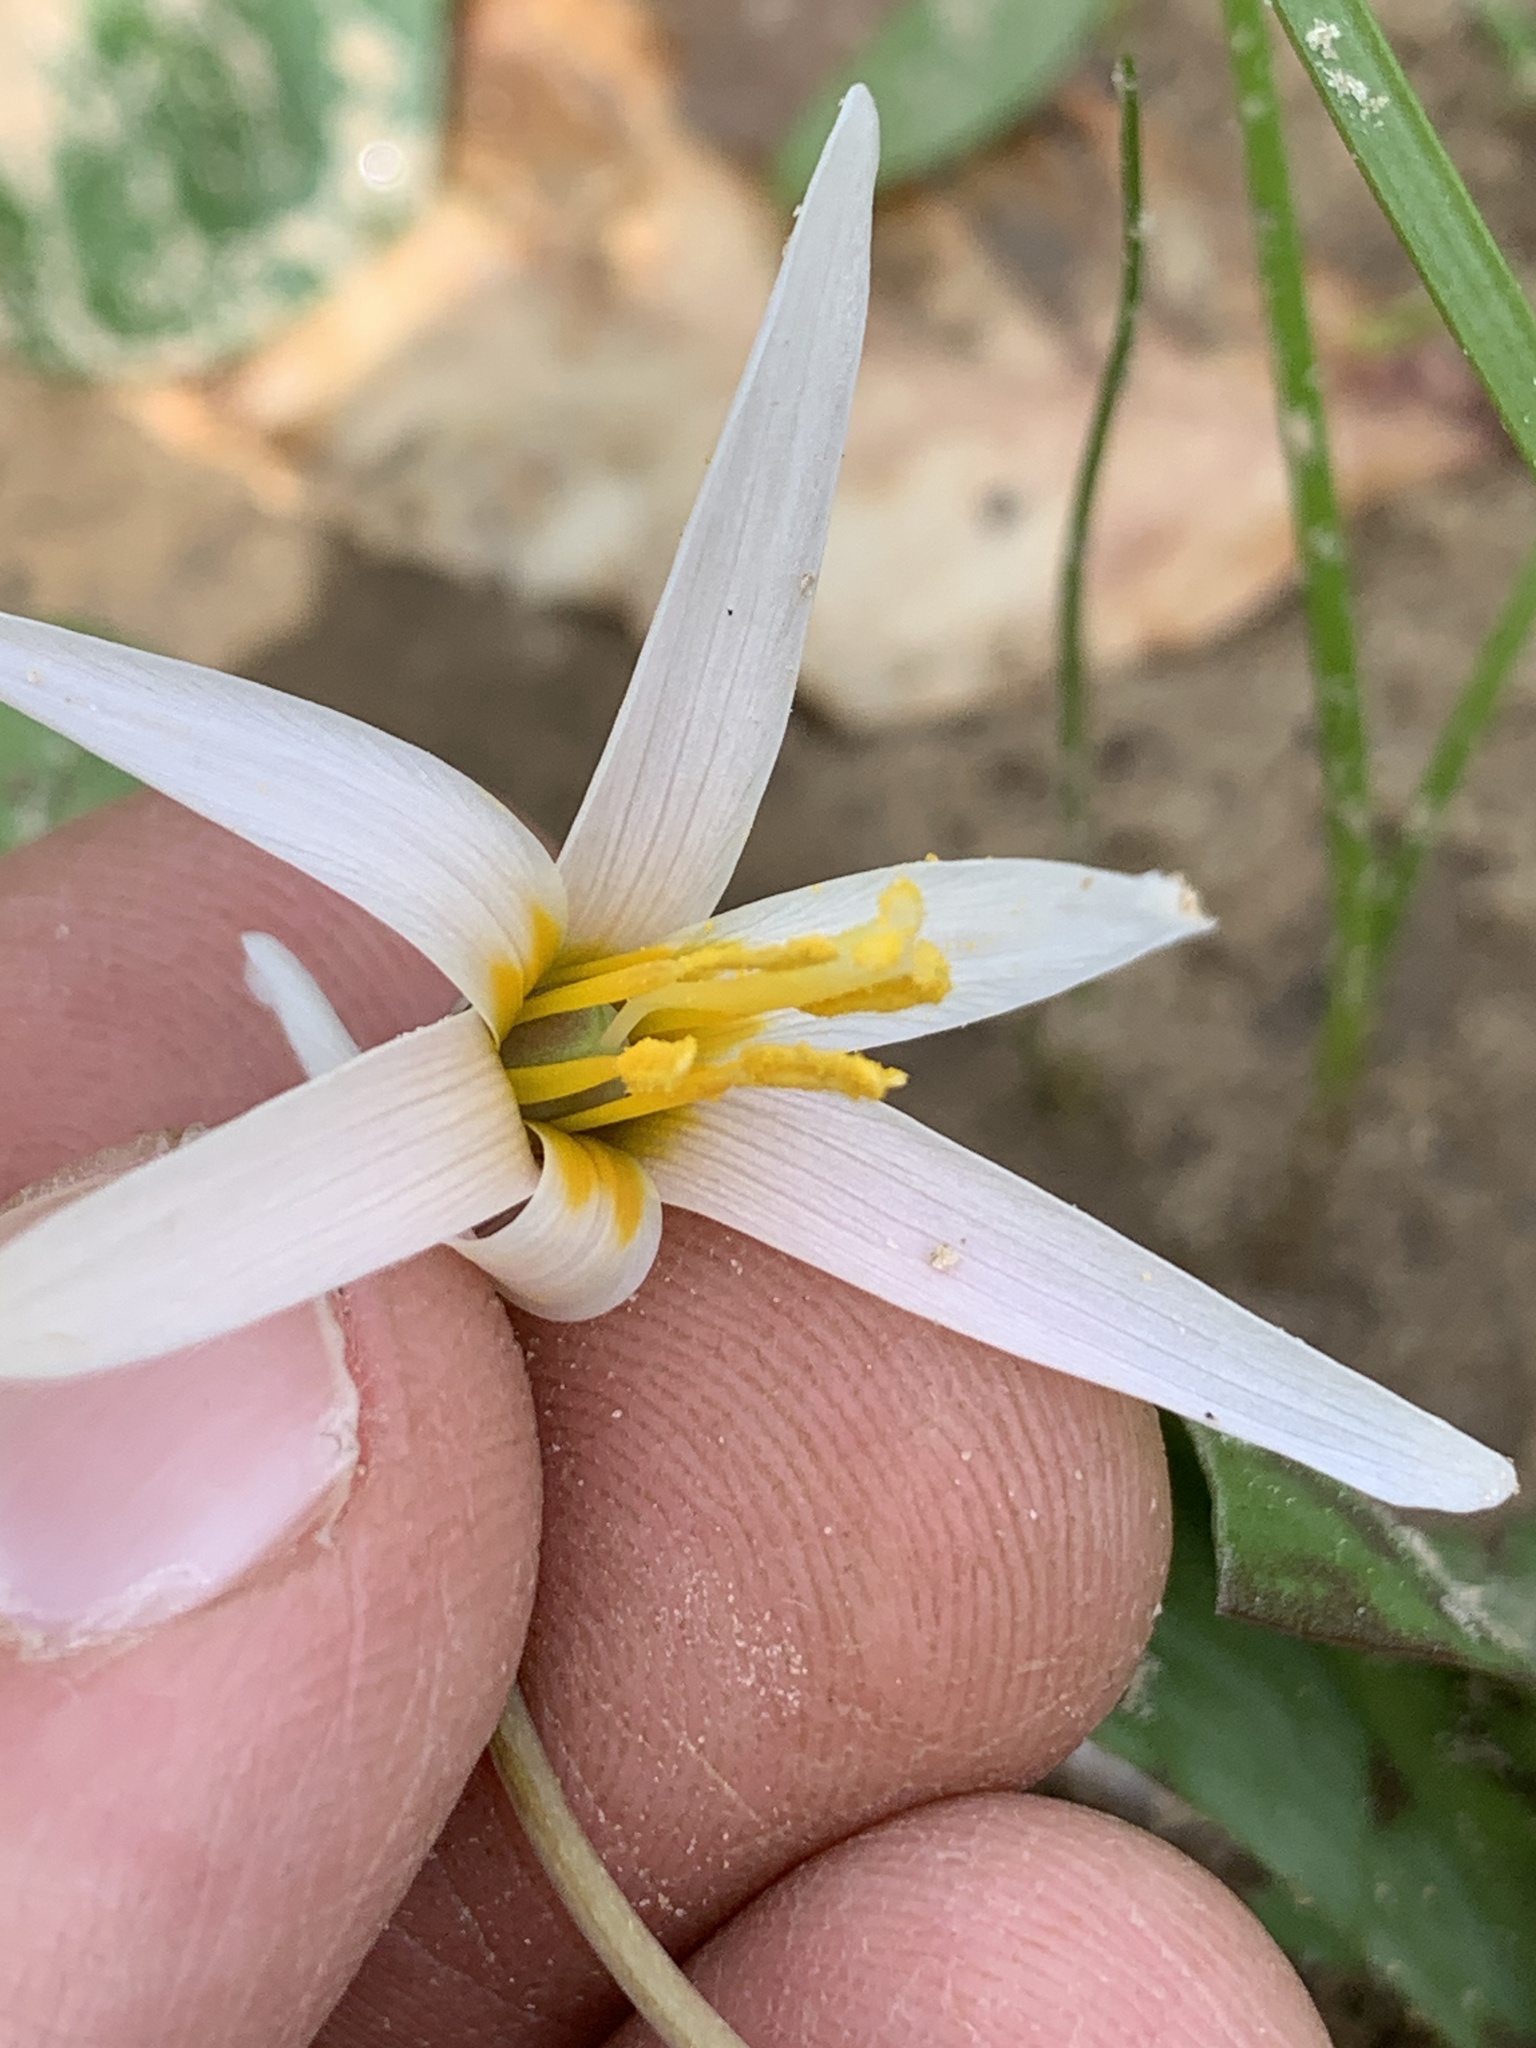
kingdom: Plantae
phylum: Tracheophyta
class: Liliopsida
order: Liliales
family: Liliaceae
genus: Erythronium
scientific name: Erythronium albidum
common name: White trout-lily
